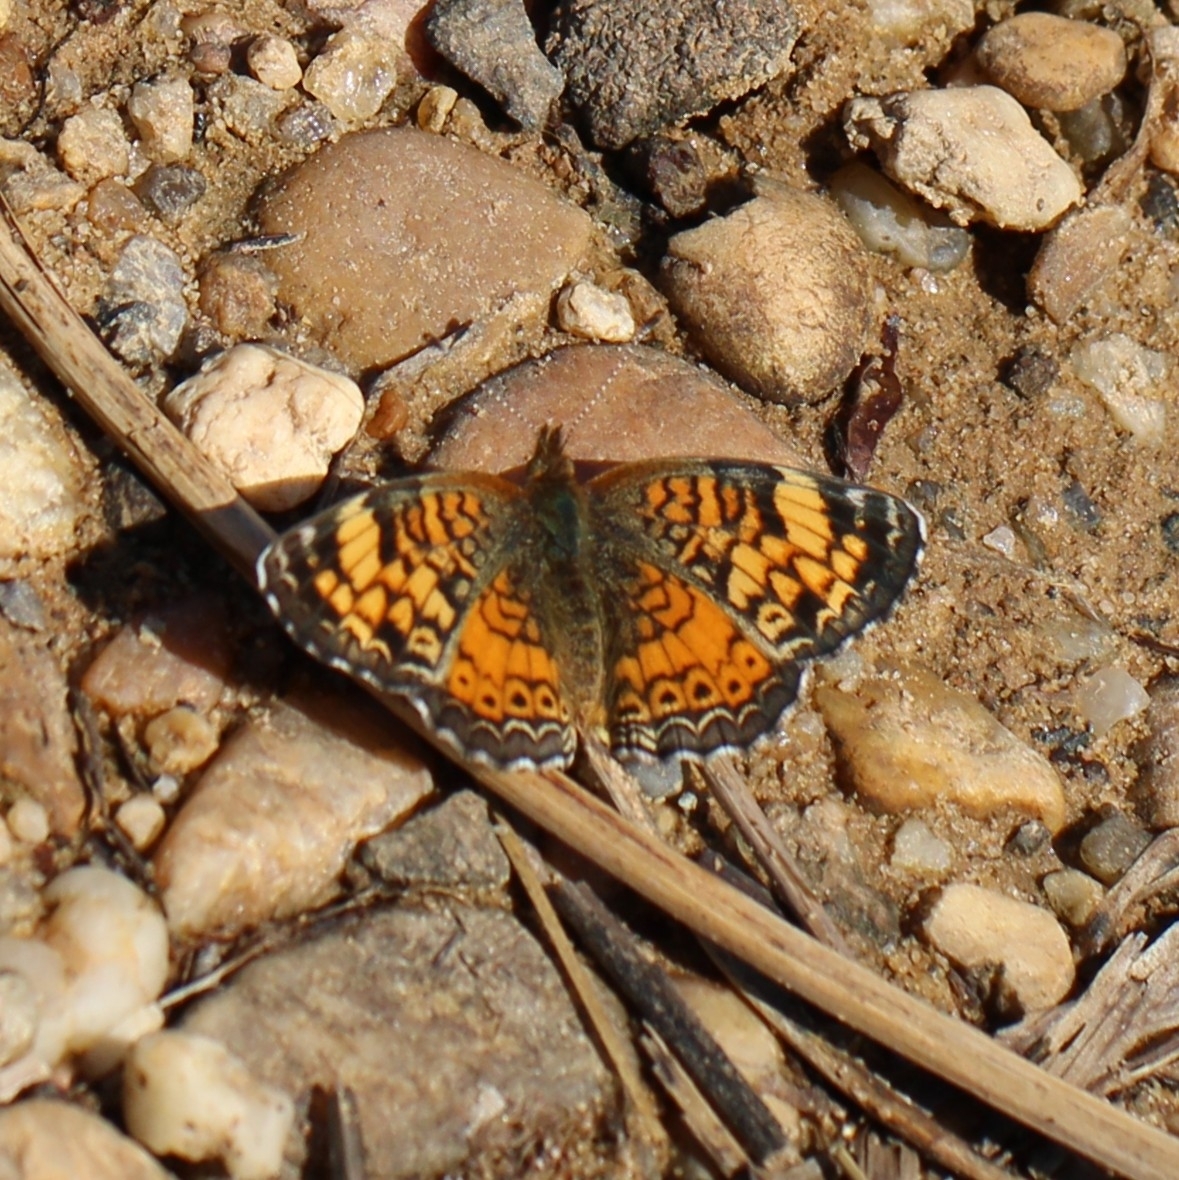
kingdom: Animalia
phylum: Arthropoda
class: Insecta
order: Lepidoptera
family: Nymphalidae
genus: Phyciodes
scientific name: Phyciodes tharos
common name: Pearl crescent
